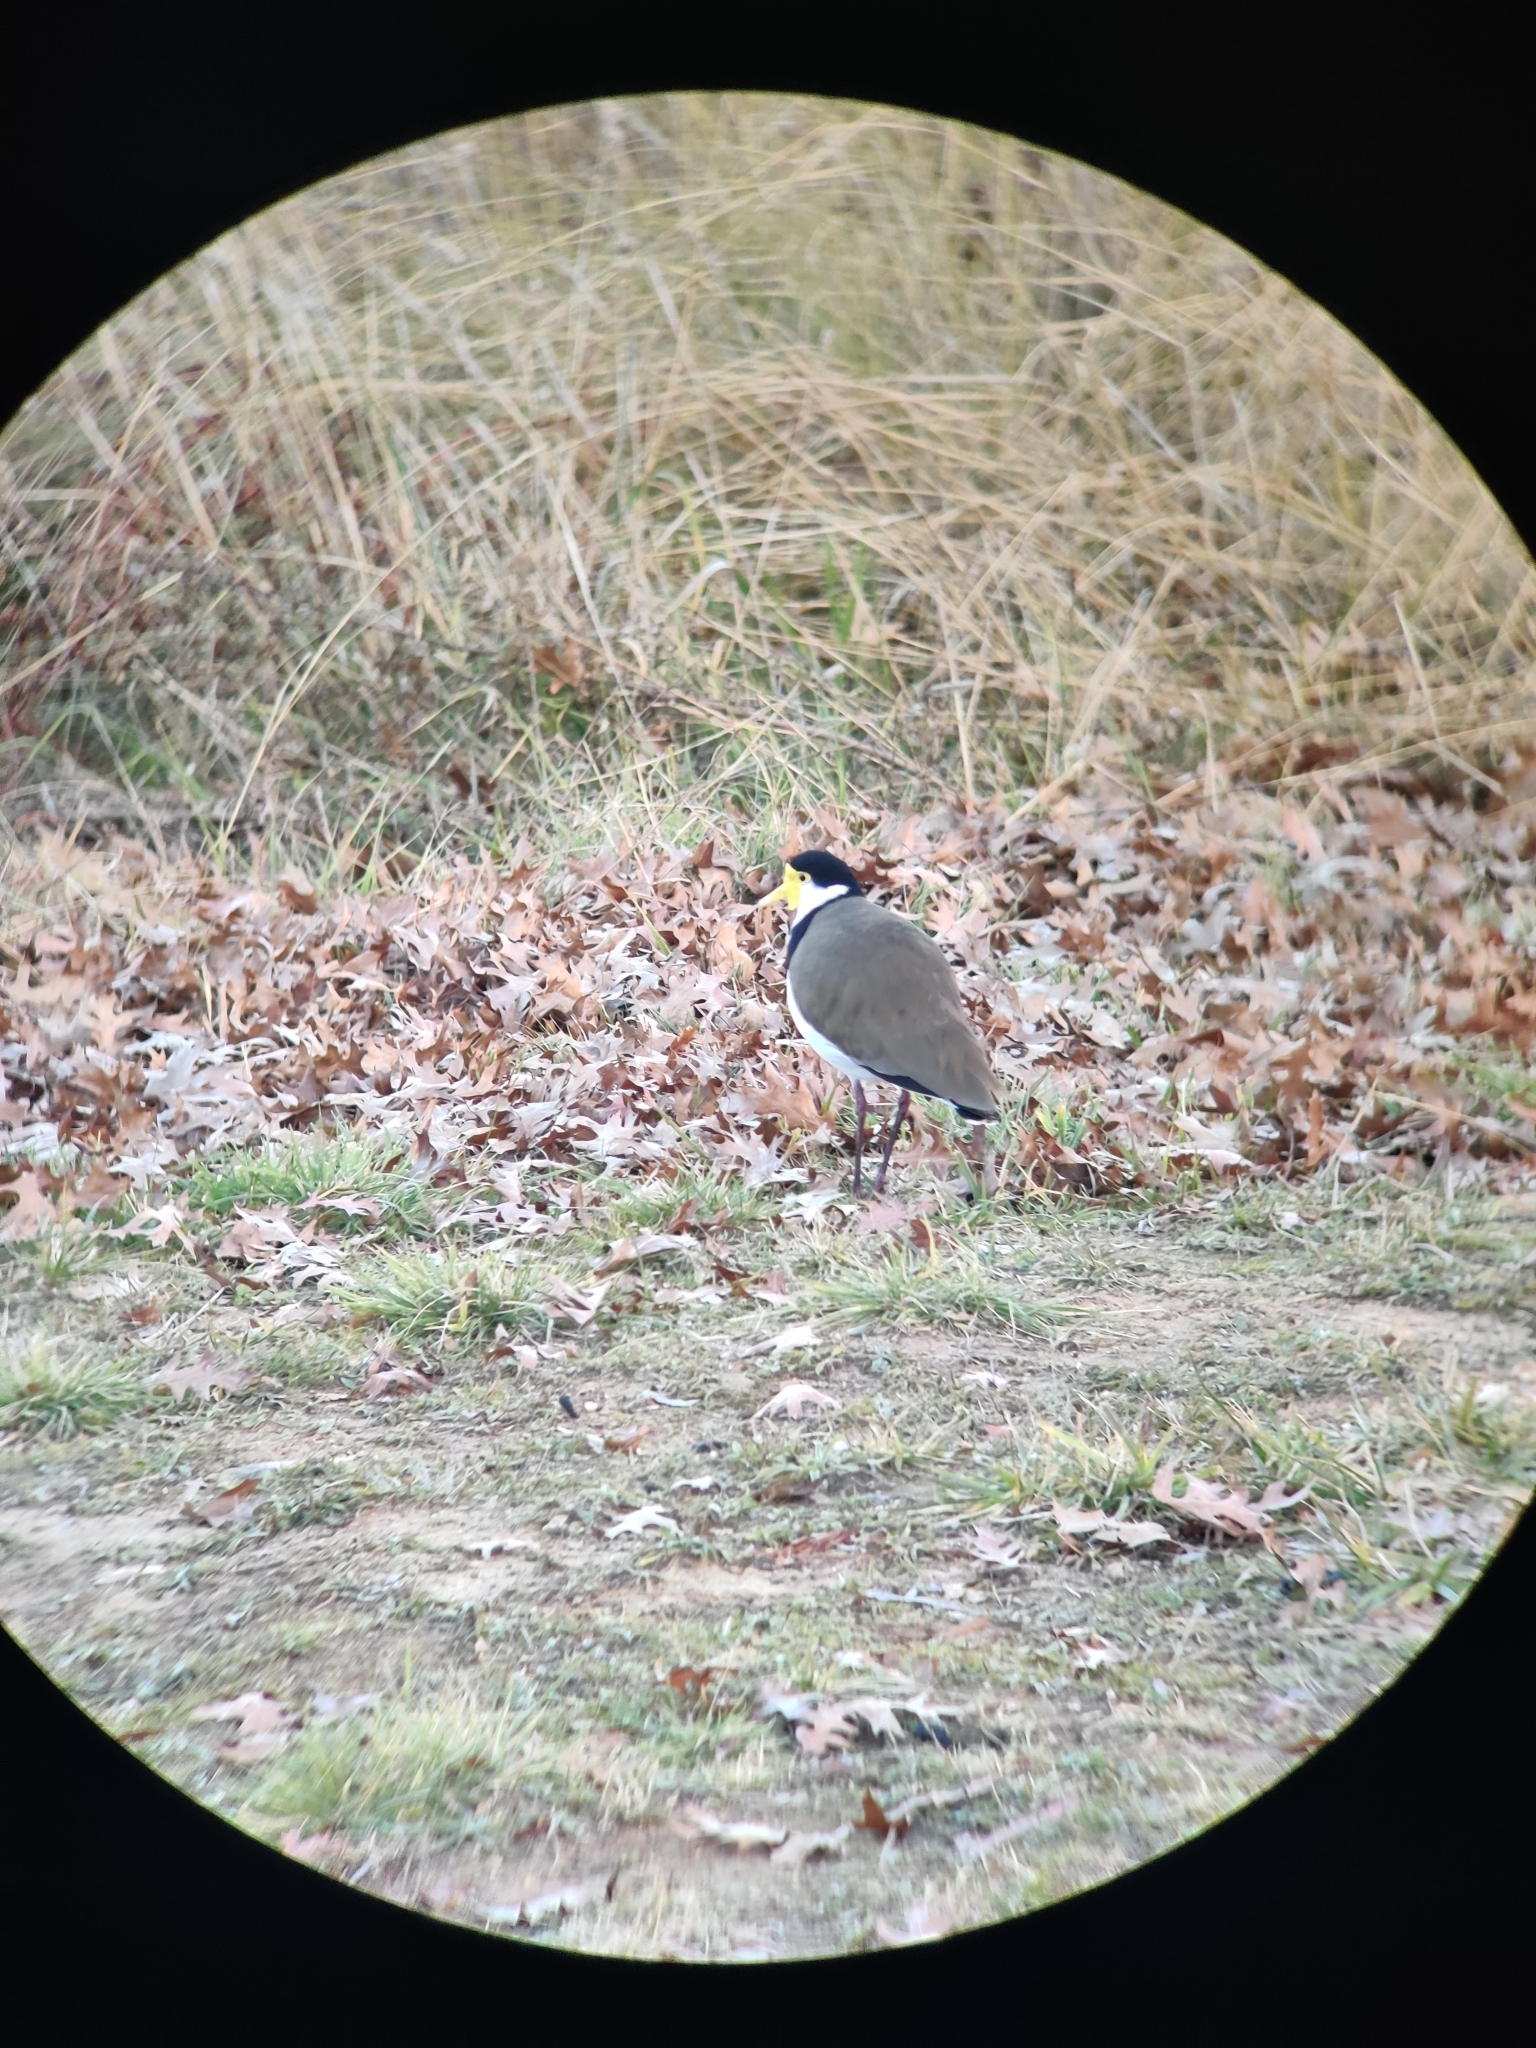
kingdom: Animalia
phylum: Chordata
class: Aves
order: Charadriiformes
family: Charadriidae
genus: Vanellus
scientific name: Vanellus miles
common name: Masked lapwing
